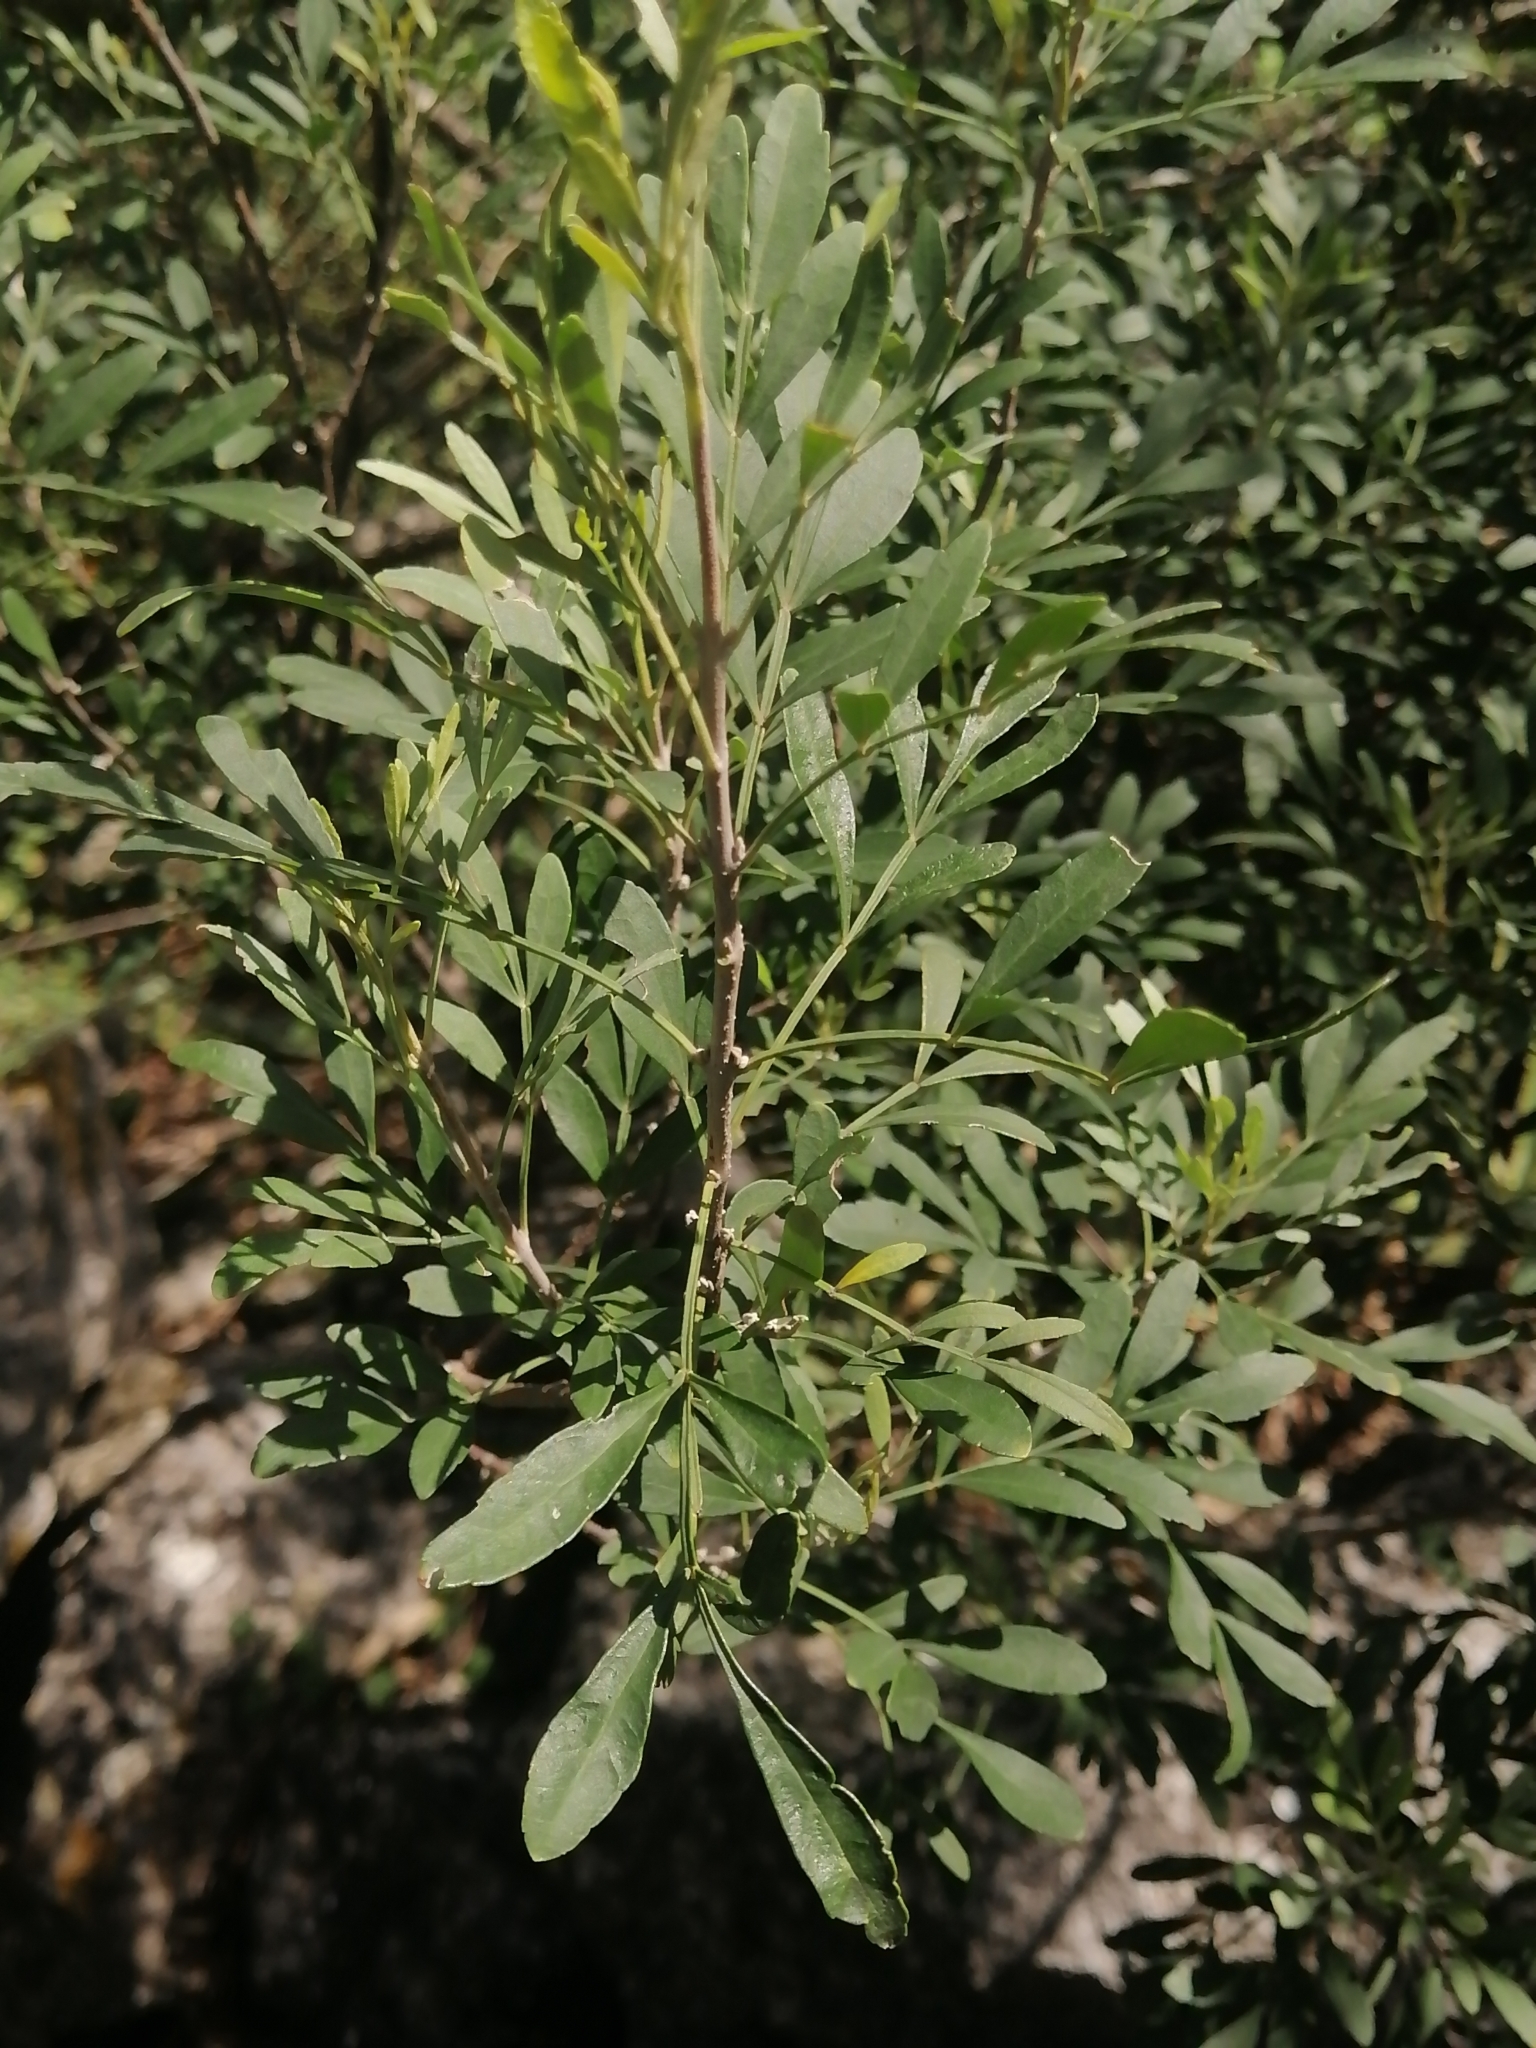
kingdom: Plantae
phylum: Tracheophyta
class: Magnoliopsida
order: Lamiales
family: Oleaceae
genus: Fraxinus
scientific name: Fraxinus greggii
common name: Gregg ash
